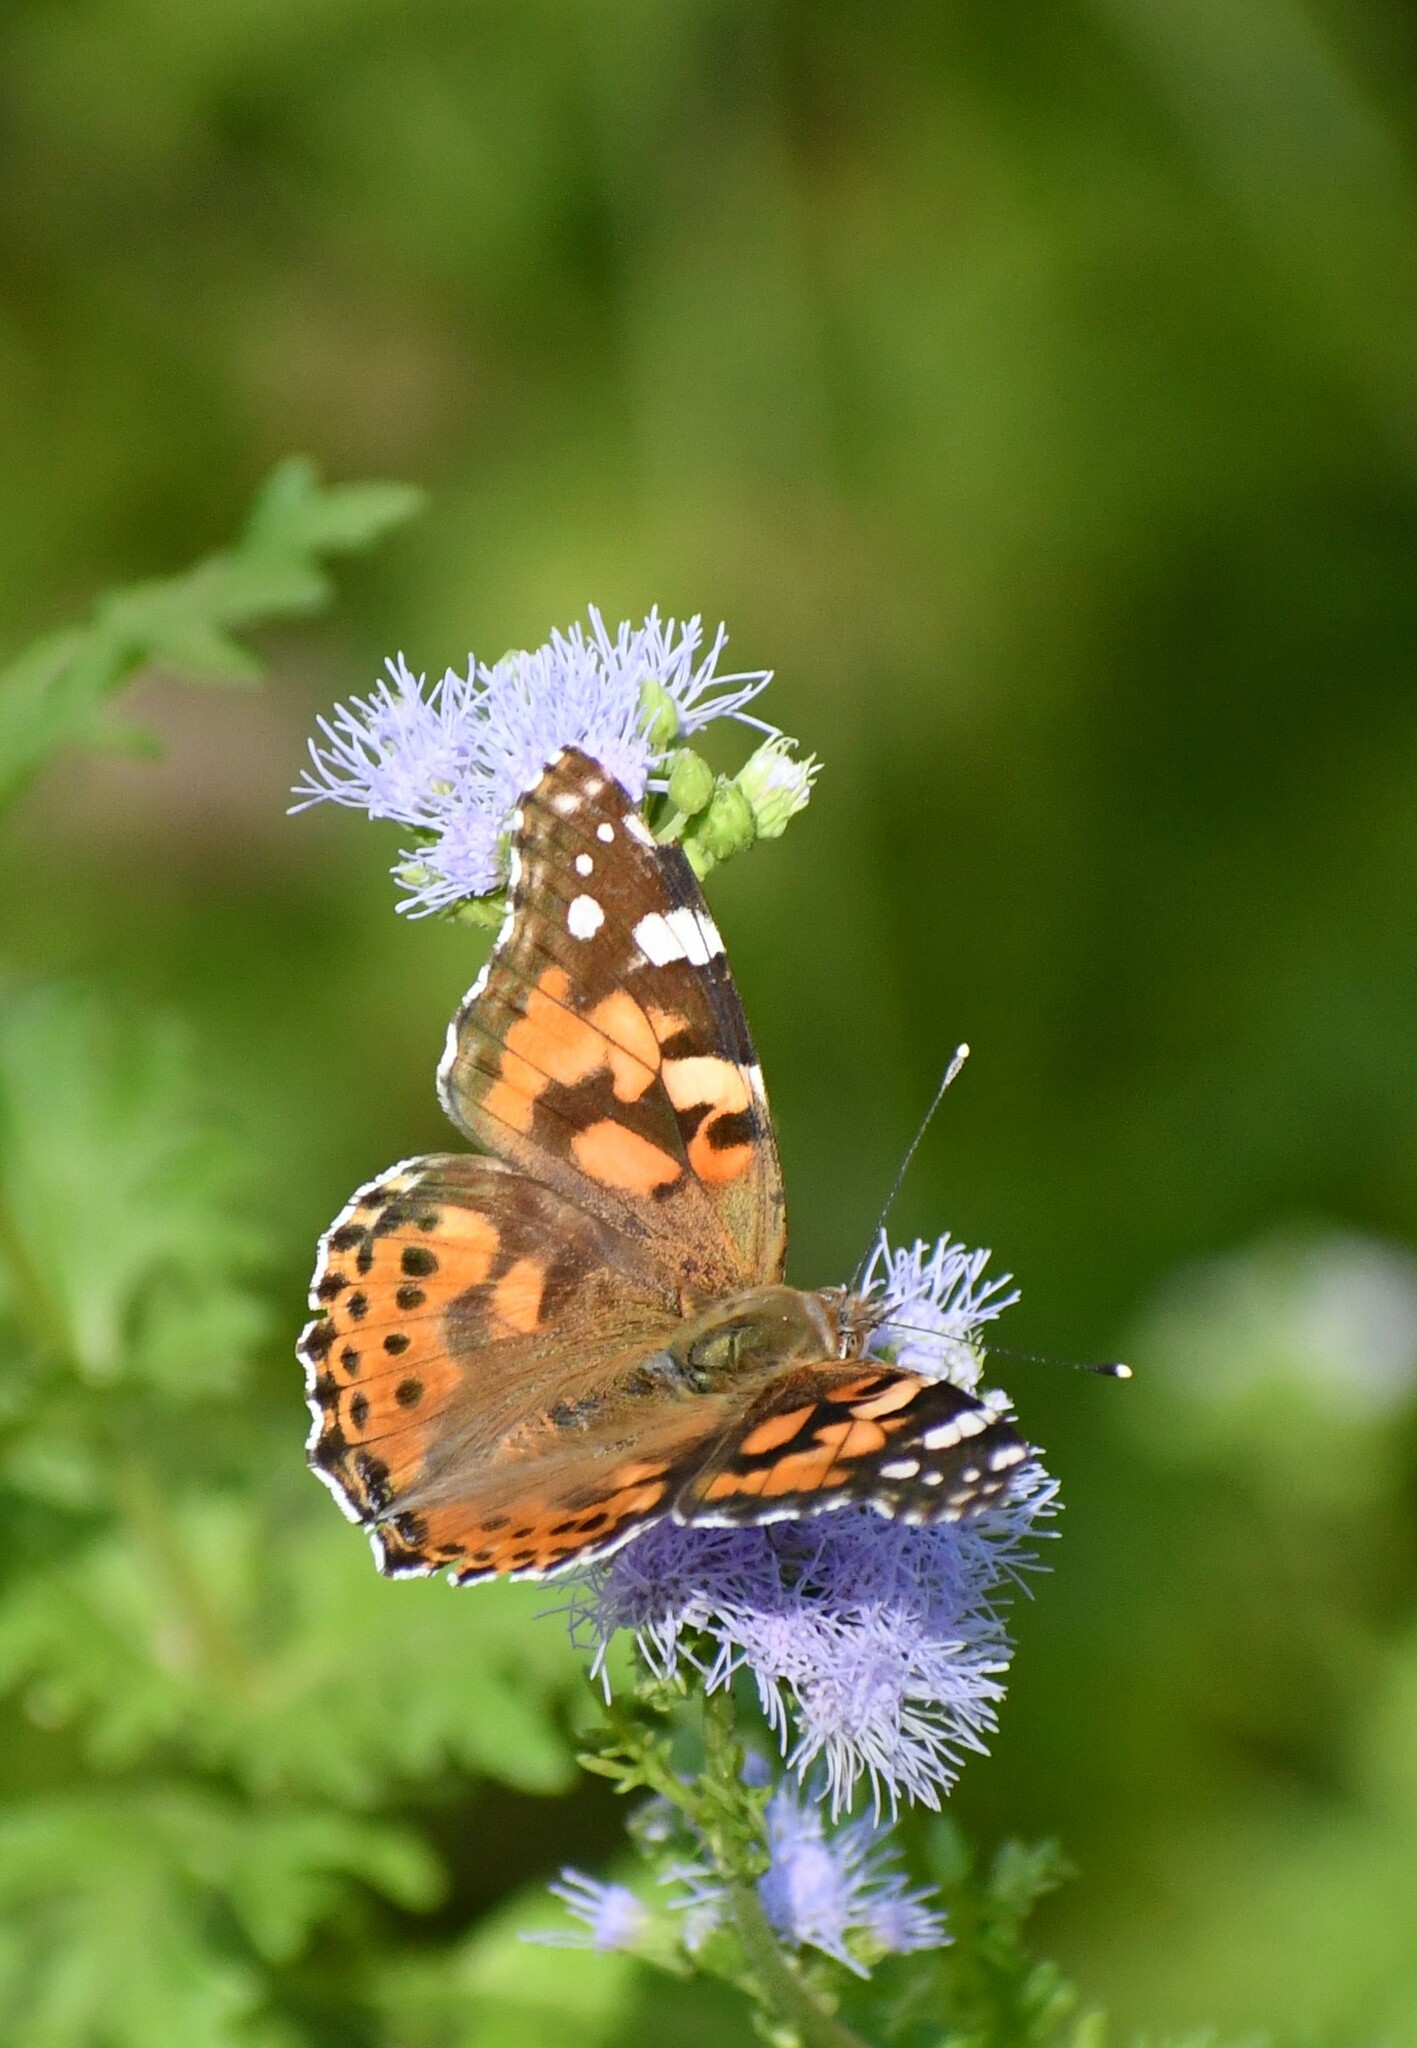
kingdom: Animalia
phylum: Arthropoda
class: Insecta
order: Lepidoptera
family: Nymphalidae
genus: Vanessa
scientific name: Vanessa cardui
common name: Painted lady
